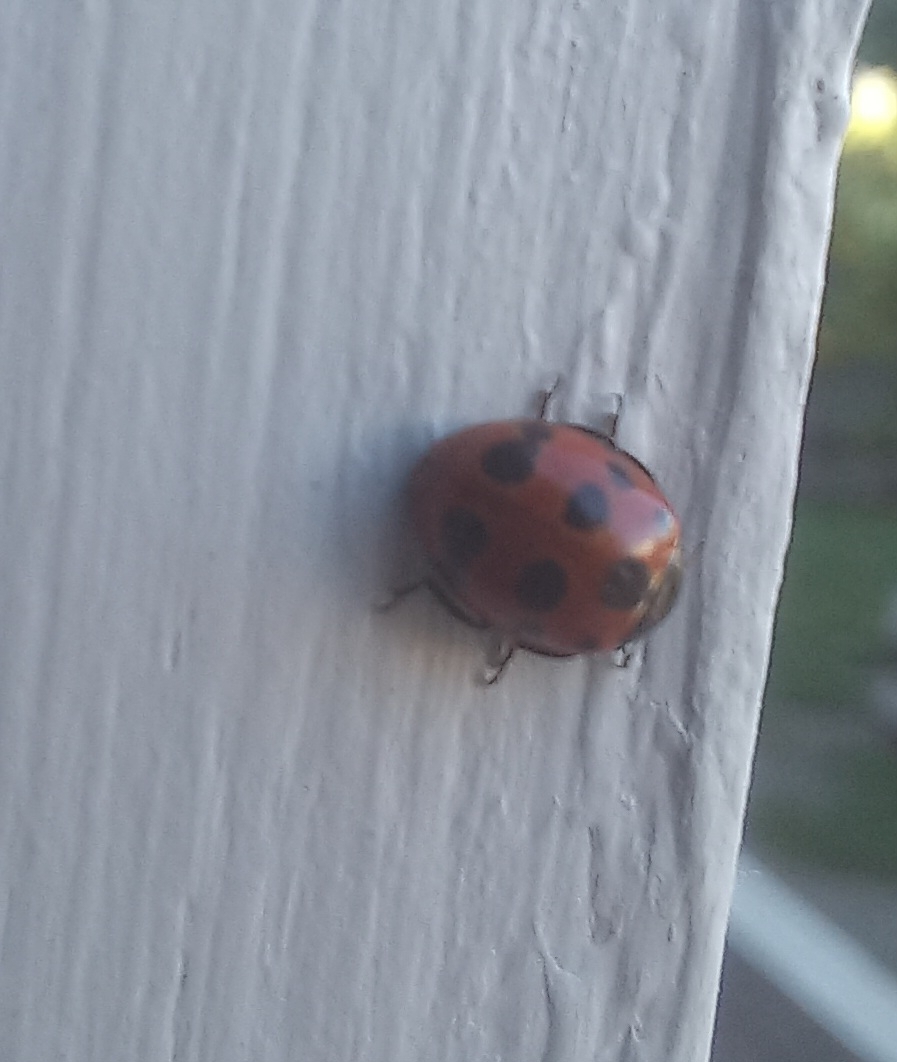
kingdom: Animalia
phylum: Arthropoda
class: Insecta
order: Coleoptera
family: Coccinellidae
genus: Coccinella
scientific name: Coccinella undecimpunctata
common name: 11-spot ladybird
